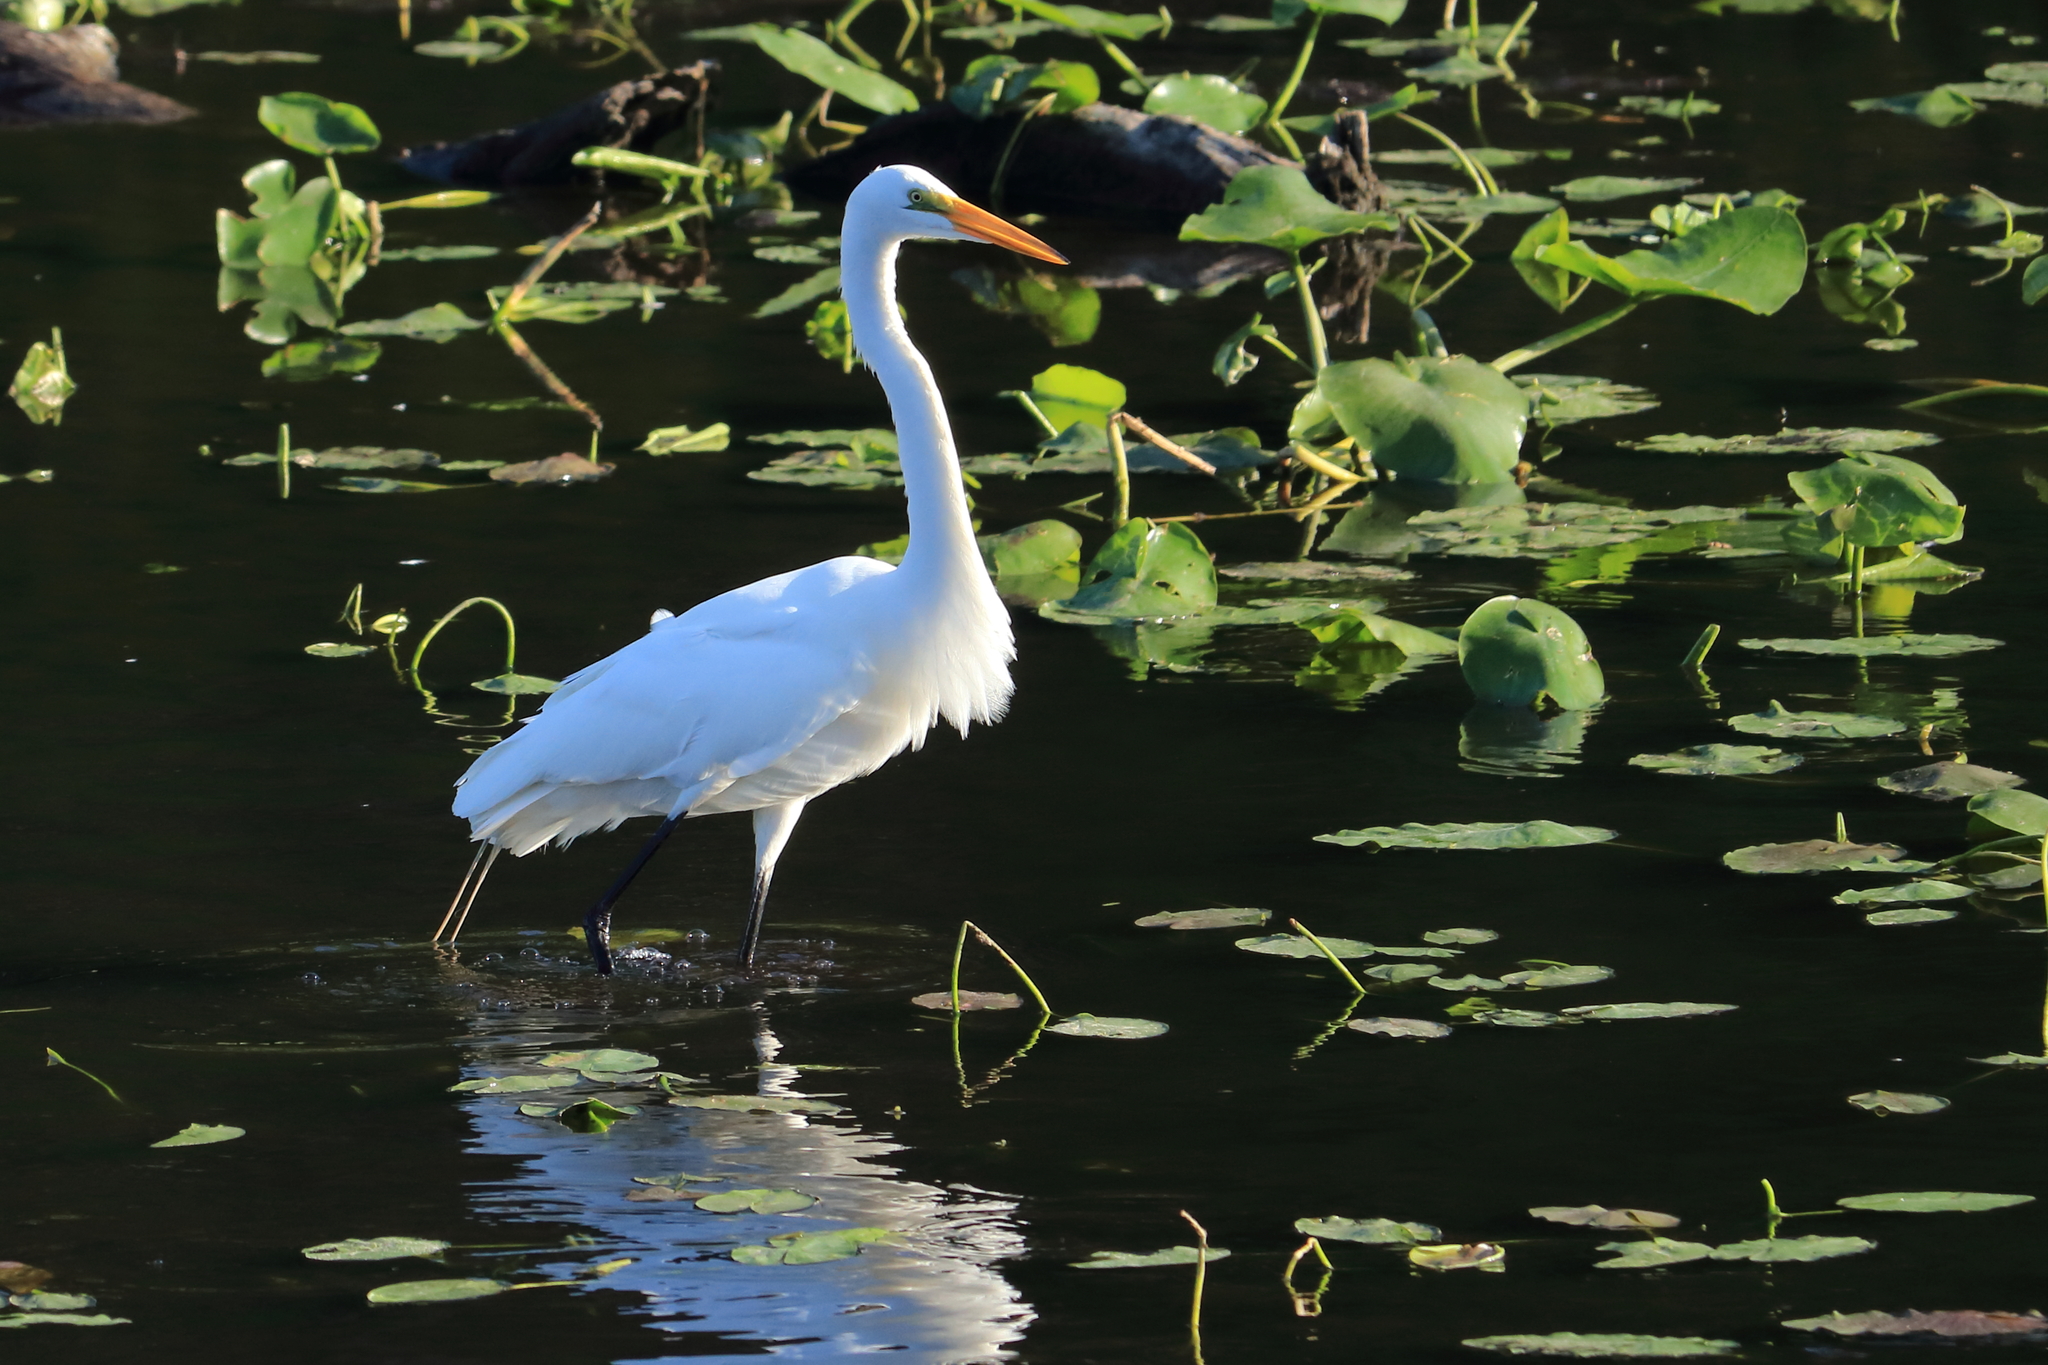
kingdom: Animalia
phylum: Chordata
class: Aves
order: Pelecaniformes
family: Ardeidae
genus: Ardea
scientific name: Ardea alba
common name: Great egret
